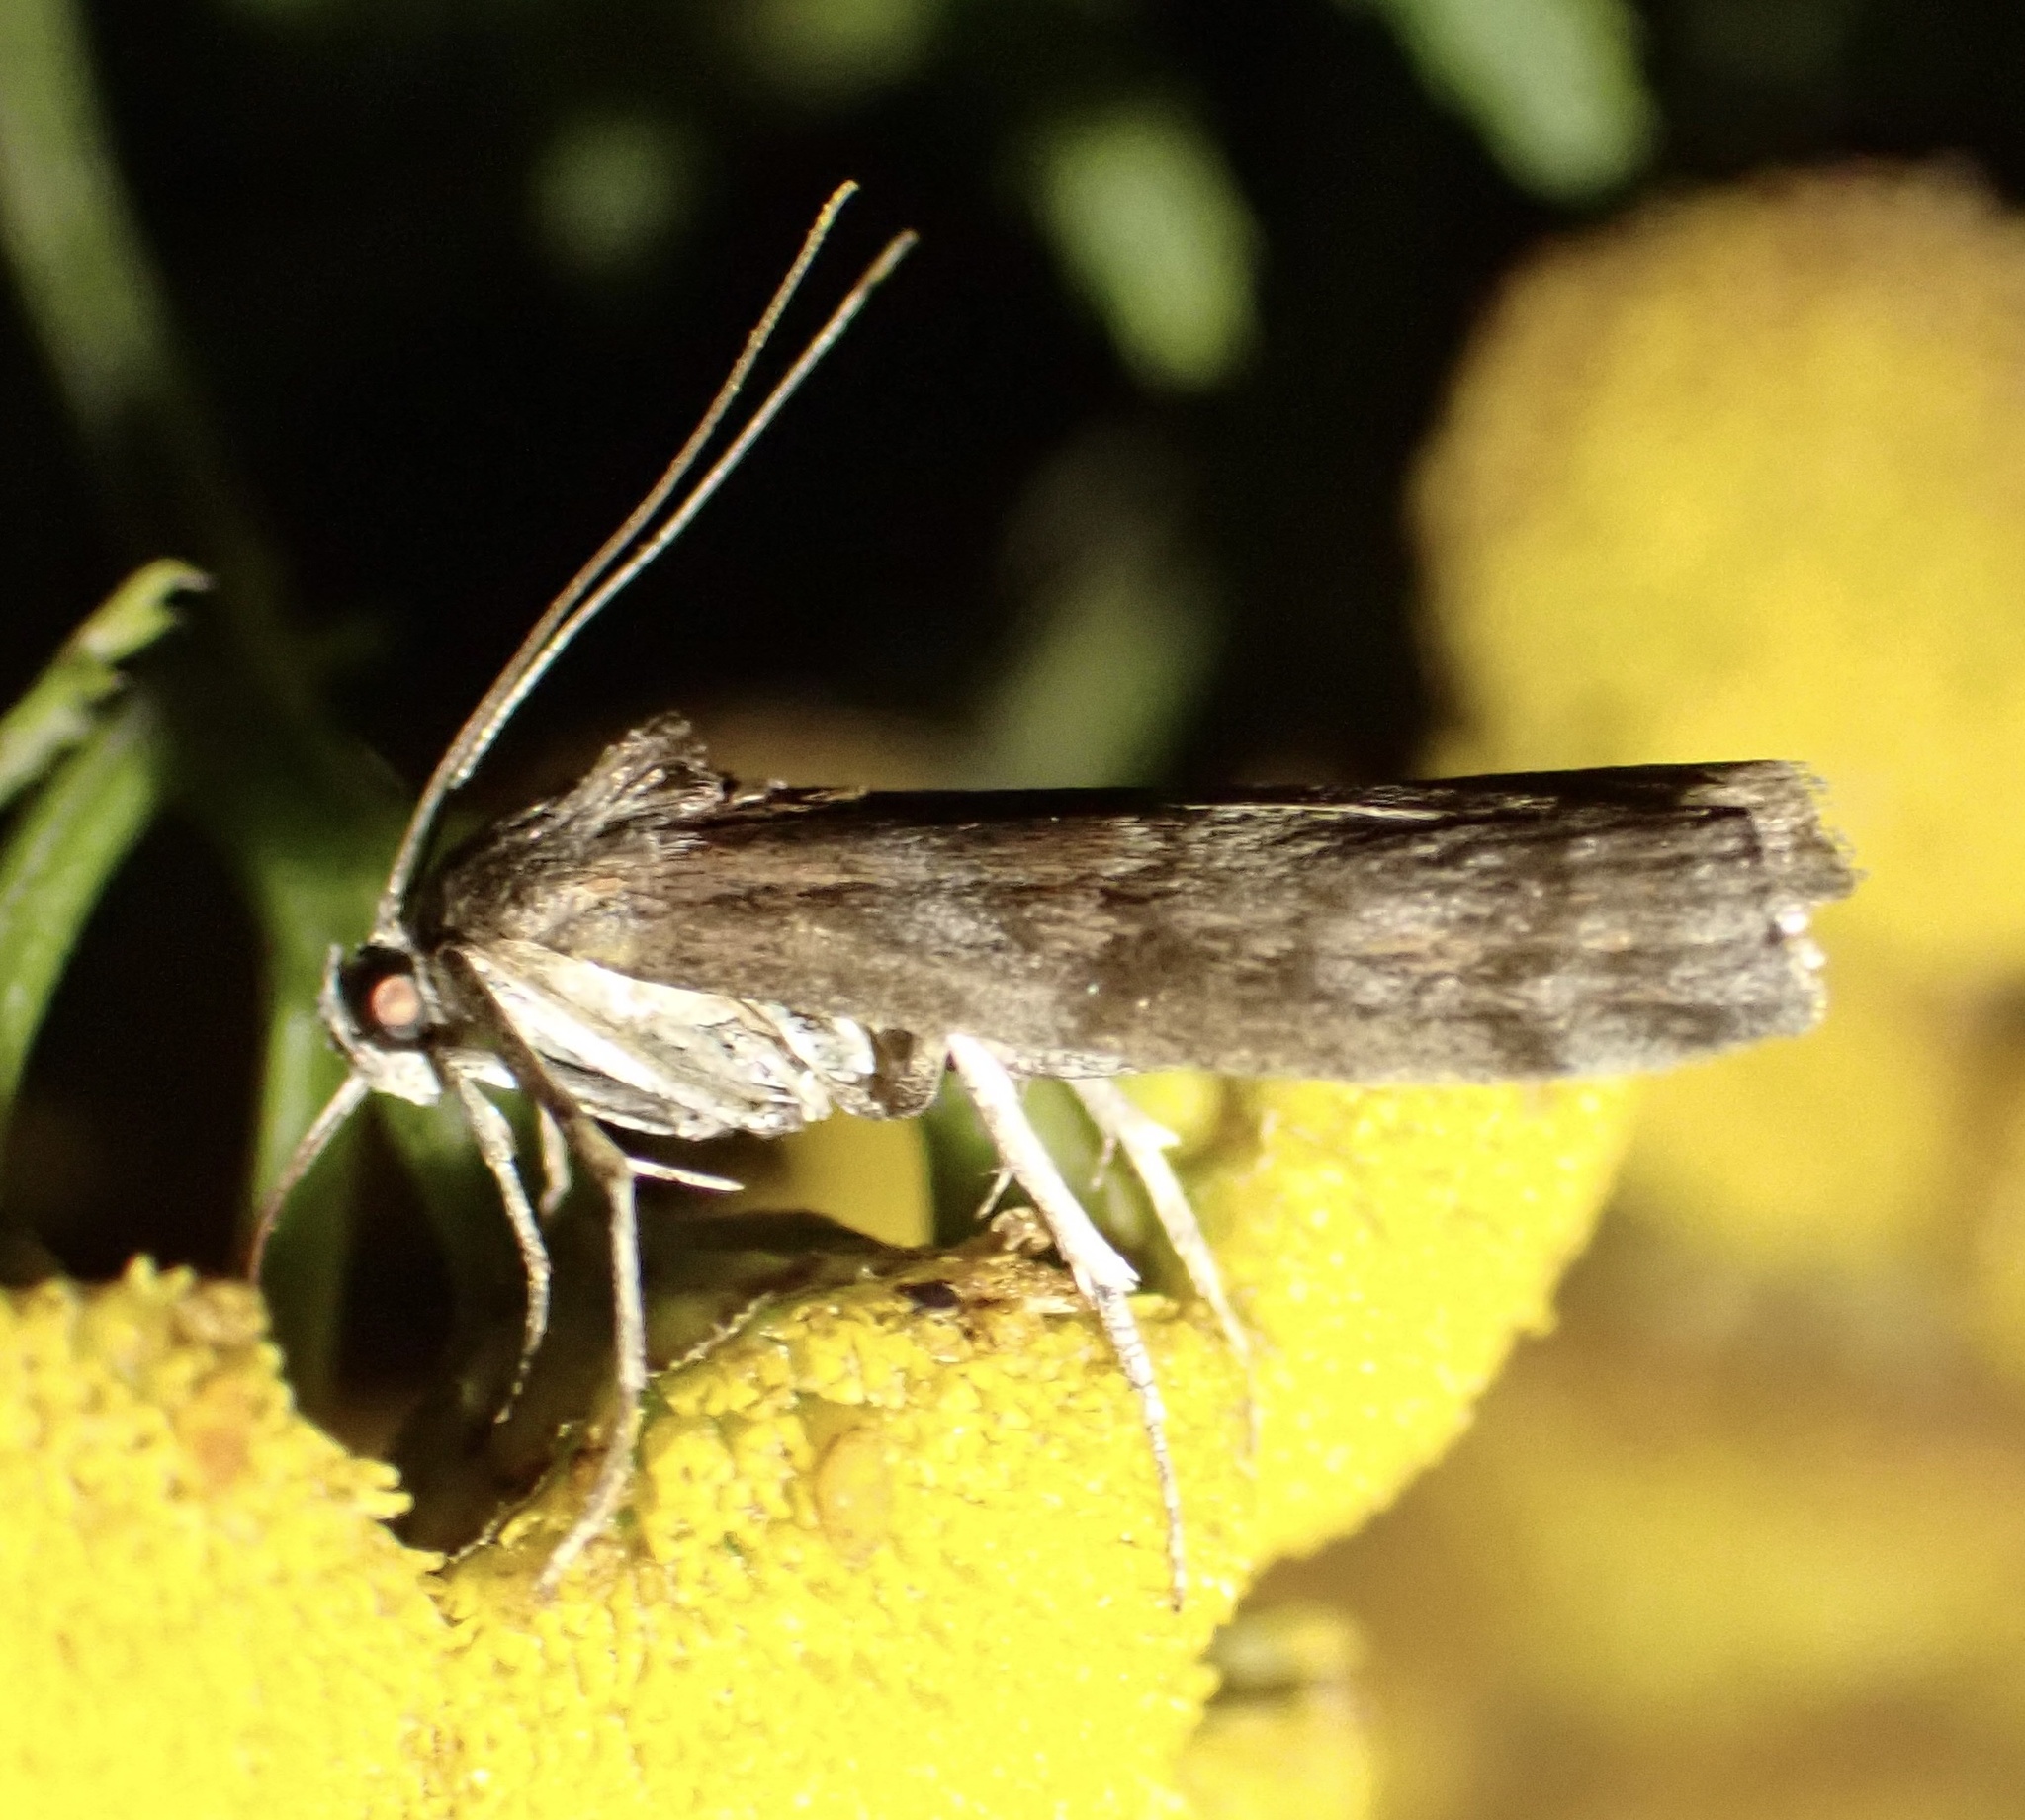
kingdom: Animalia
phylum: Arthropoda
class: Insecta
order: Lepidoptera
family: Pyralidae
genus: Phycita
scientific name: Phycita roborella
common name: Dotted oak knot-horn
